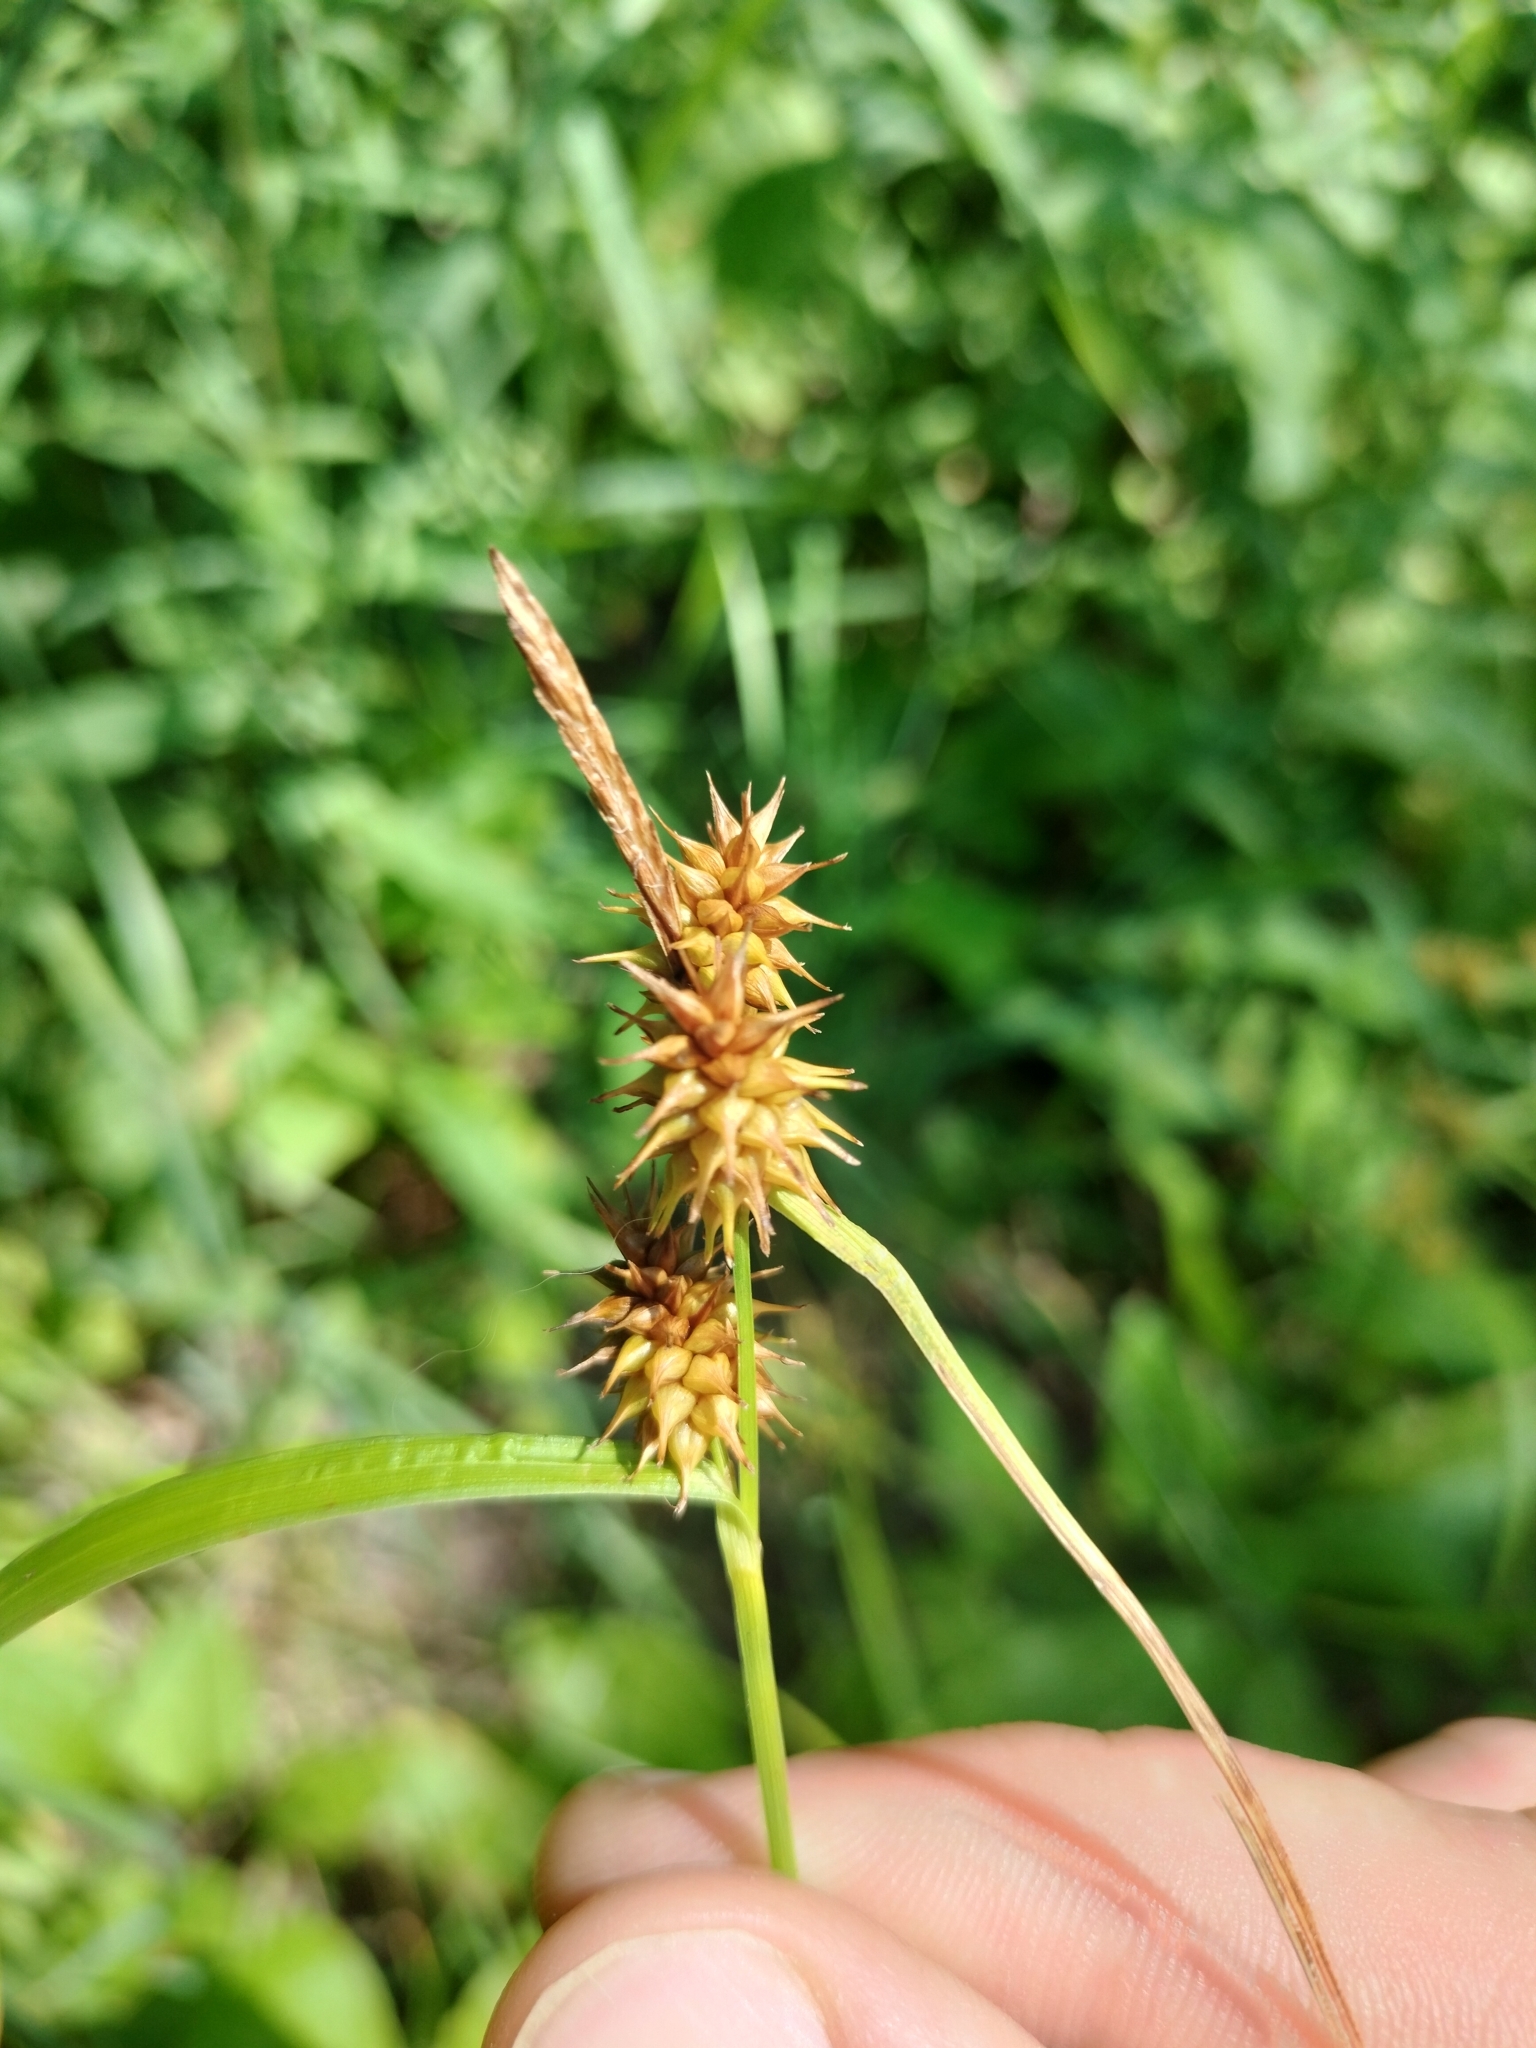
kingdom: Plantae
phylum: Tracheophyta
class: Liliopsida
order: Poales
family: Cyperaceae
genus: Carex
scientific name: Carex flava
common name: Large yellow-sedge
